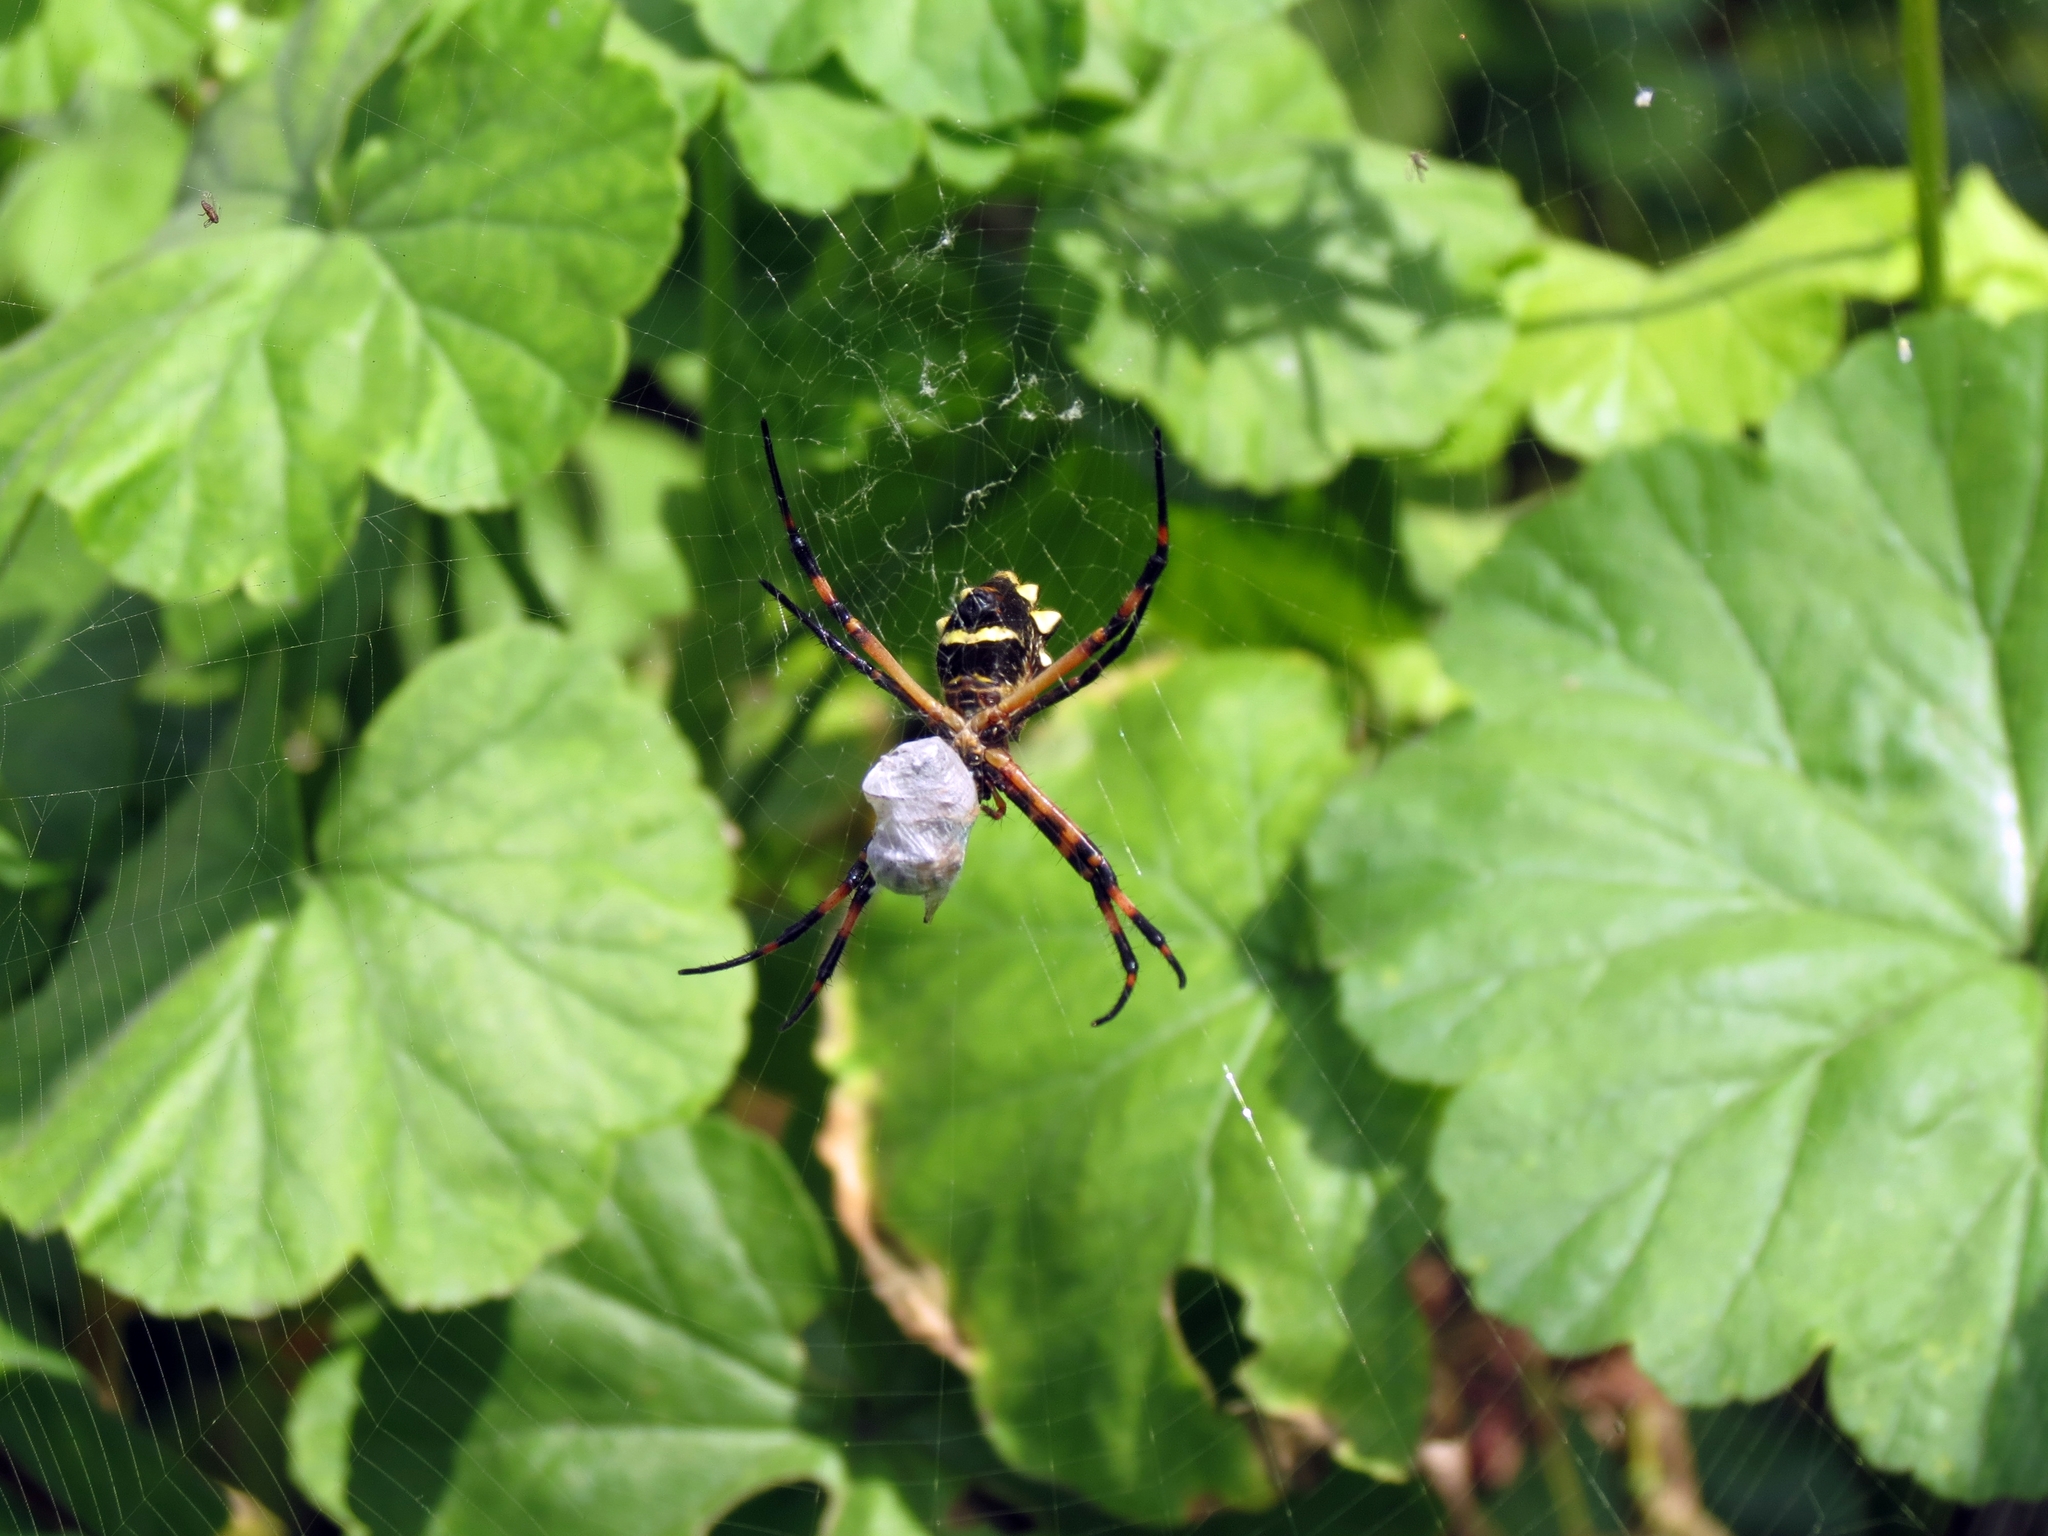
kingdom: Animalia
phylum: Arthropoda
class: Arachnida
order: Araneae
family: Araneidae
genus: Argiope
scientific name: Argiope argentata
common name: Orb weavers
